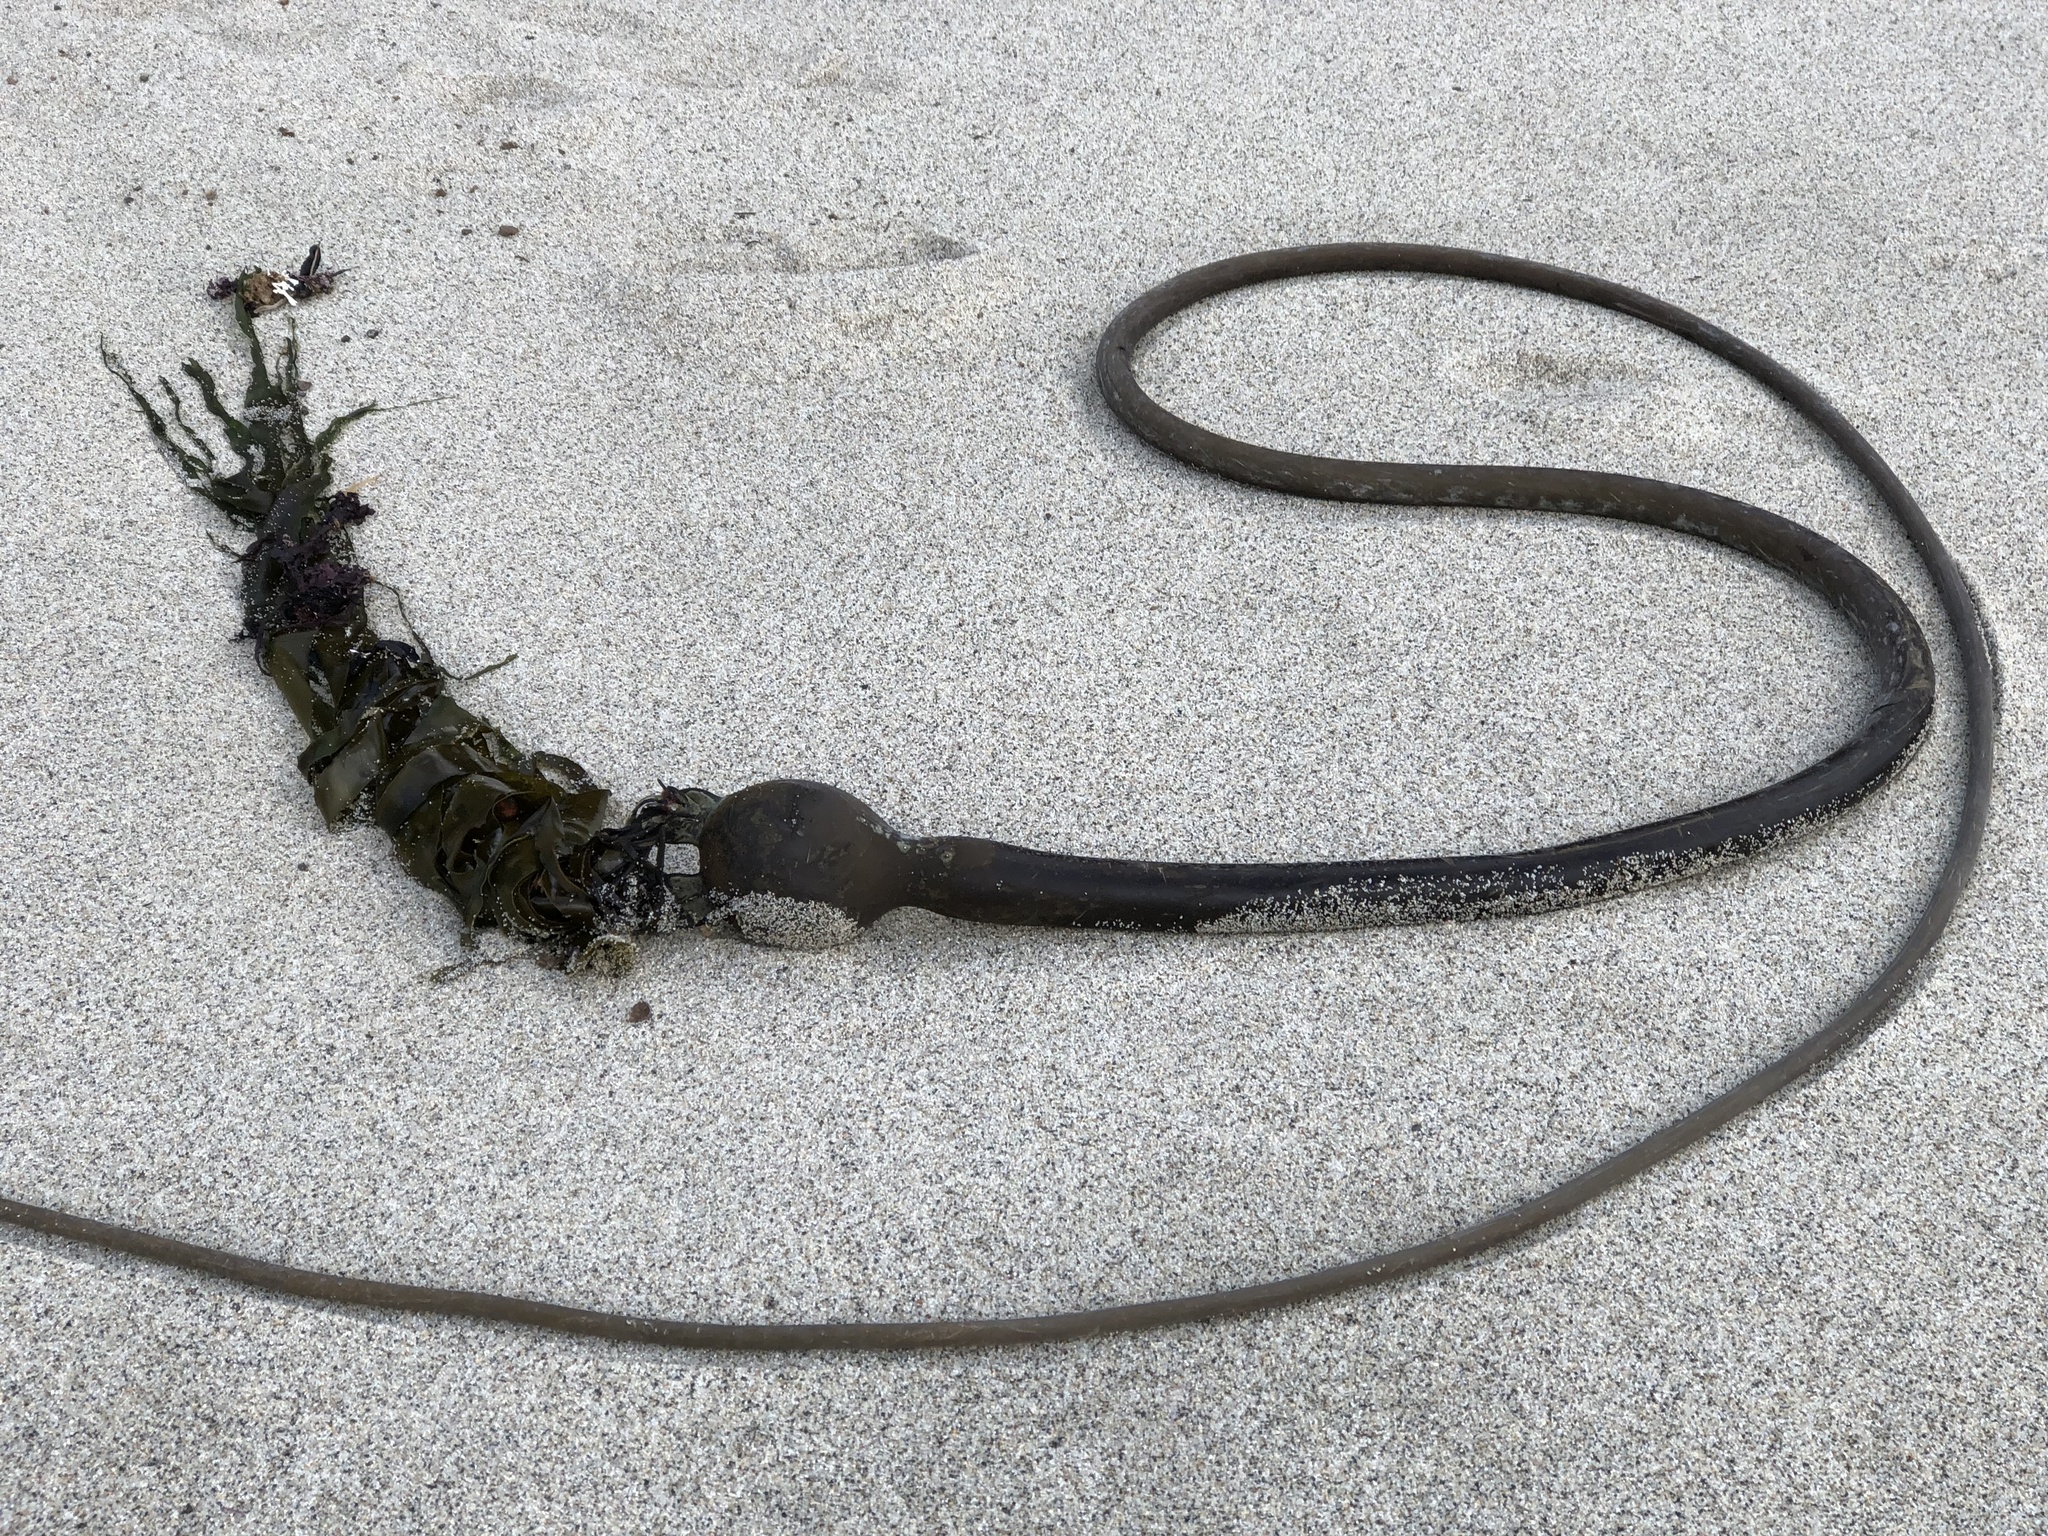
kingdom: Chromista
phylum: Ochrophyta
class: Phaeophyceae
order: Laminariales
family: Laminariaceae
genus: Nereocystis
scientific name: Nereocystis luetkeana
